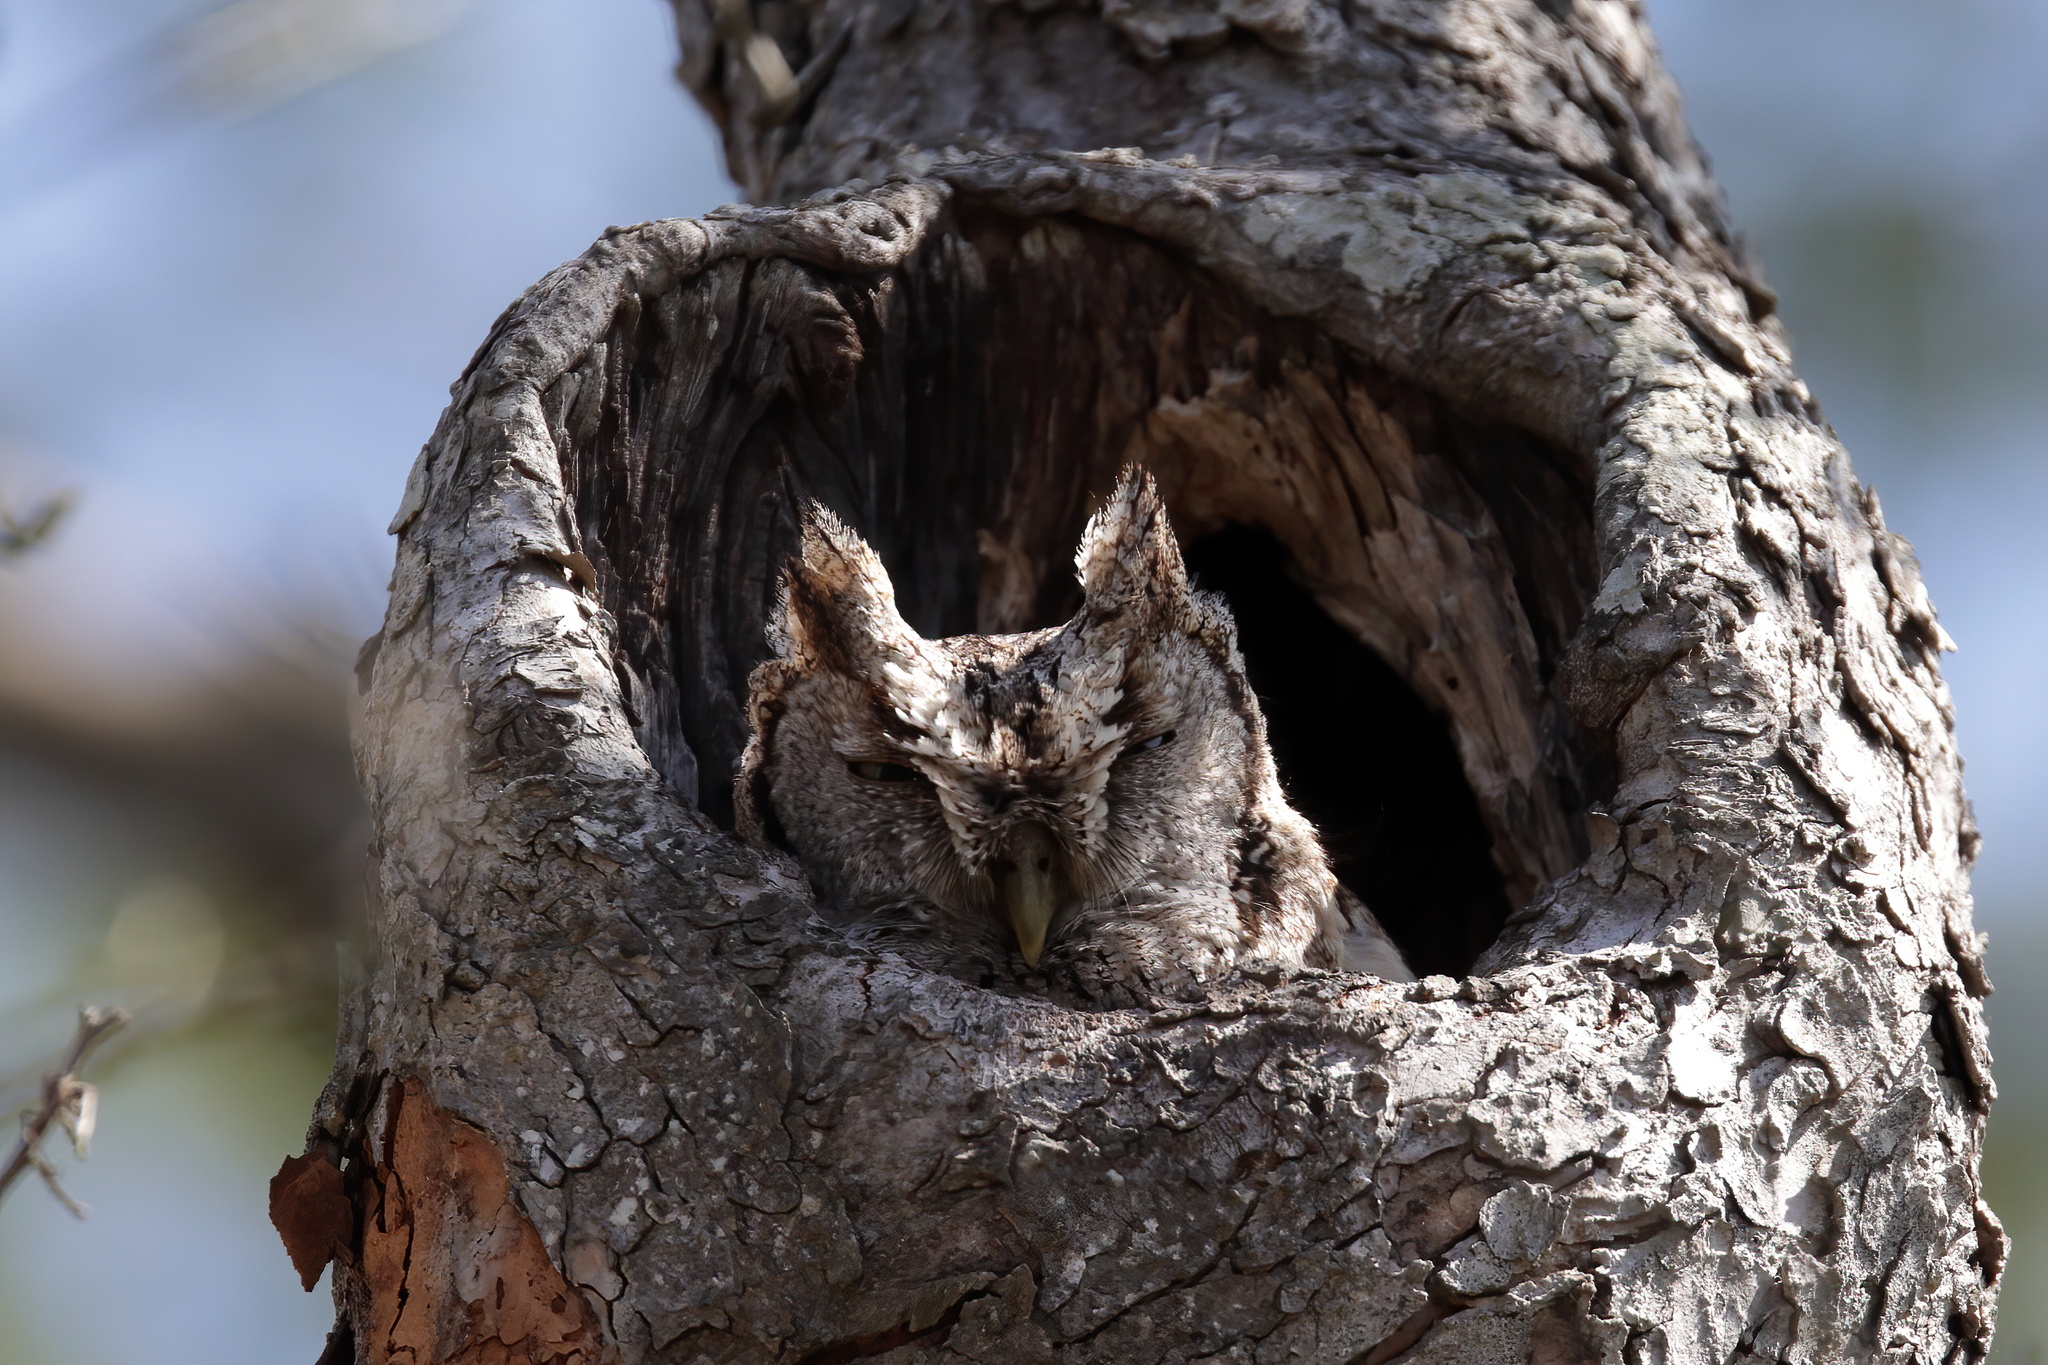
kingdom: Animalia
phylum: Chordata
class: Aves
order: Strigiformes
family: Strigidae
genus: Megascops
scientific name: Megascops asio
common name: Eastern screech-owl
